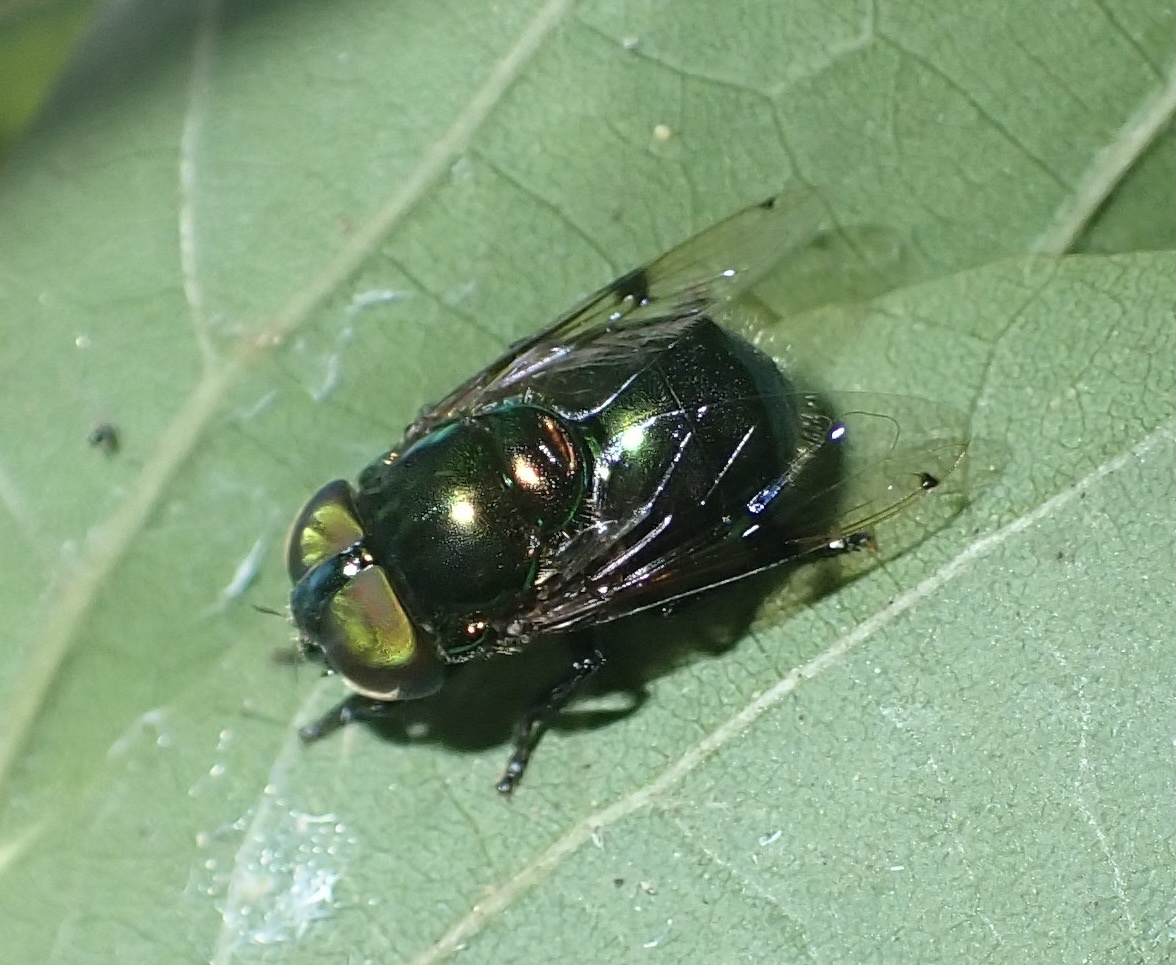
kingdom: Animalia
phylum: Arthropoda
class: Insecta
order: Diptera
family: Syrphidae
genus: Ornidia
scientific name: Ornidia obesa
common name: Syrphid fly
